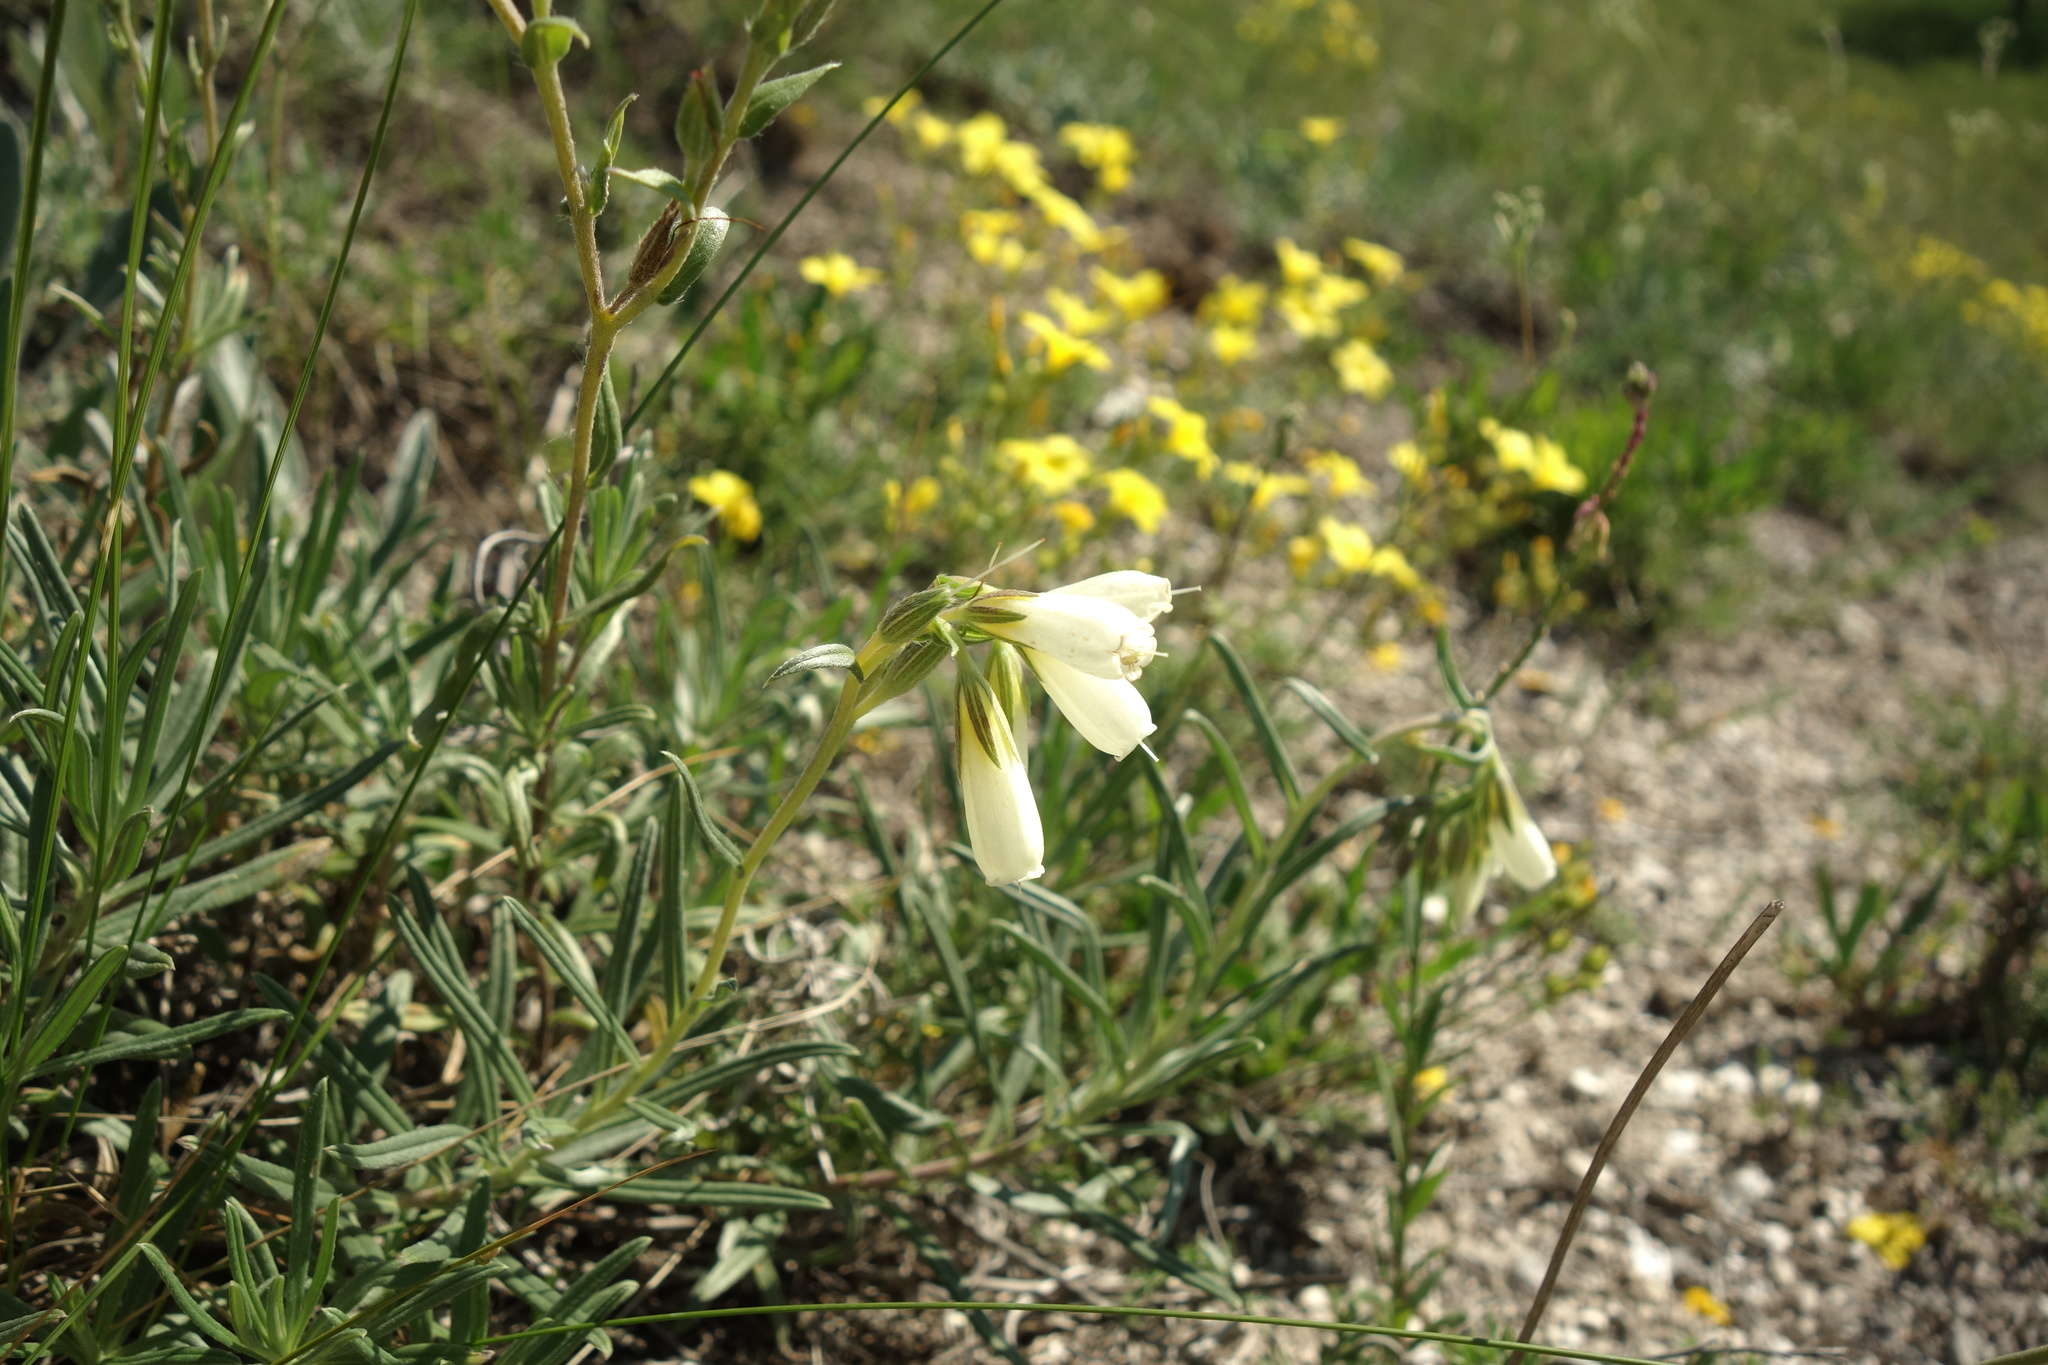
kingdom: Plantae
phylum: Tracheophyta
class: Magnoliopsida
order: Boraginales
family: Boraginaceae
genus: Onosma
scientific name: Onosma simplicissima
